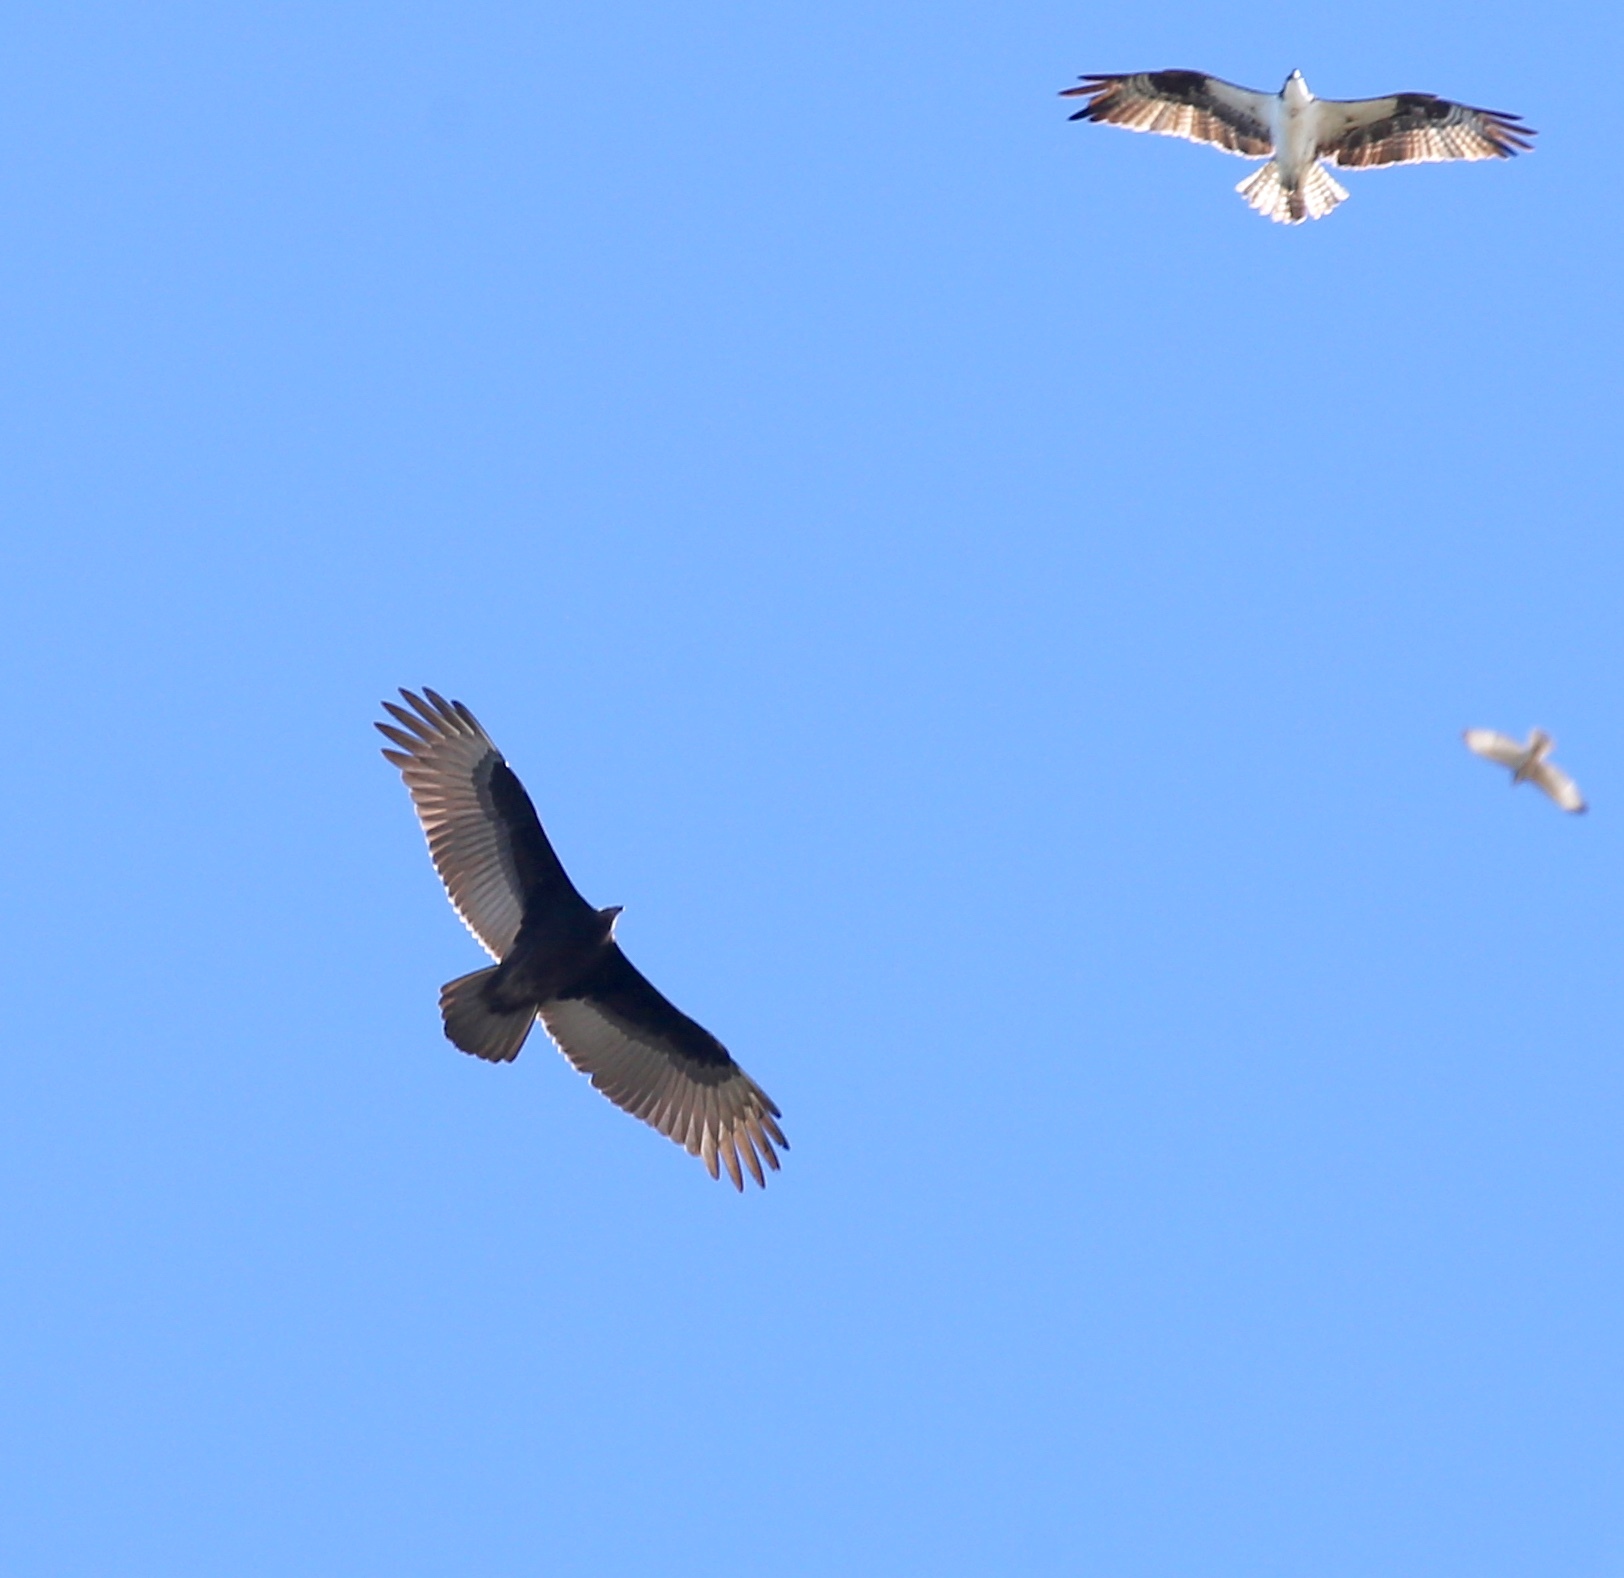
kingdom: Animalia
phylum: Chordata
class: Aves
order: Accipitriformes
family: Cathartidae
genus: Cathartes
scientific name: Cathartes aura
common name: Turkey vulture
